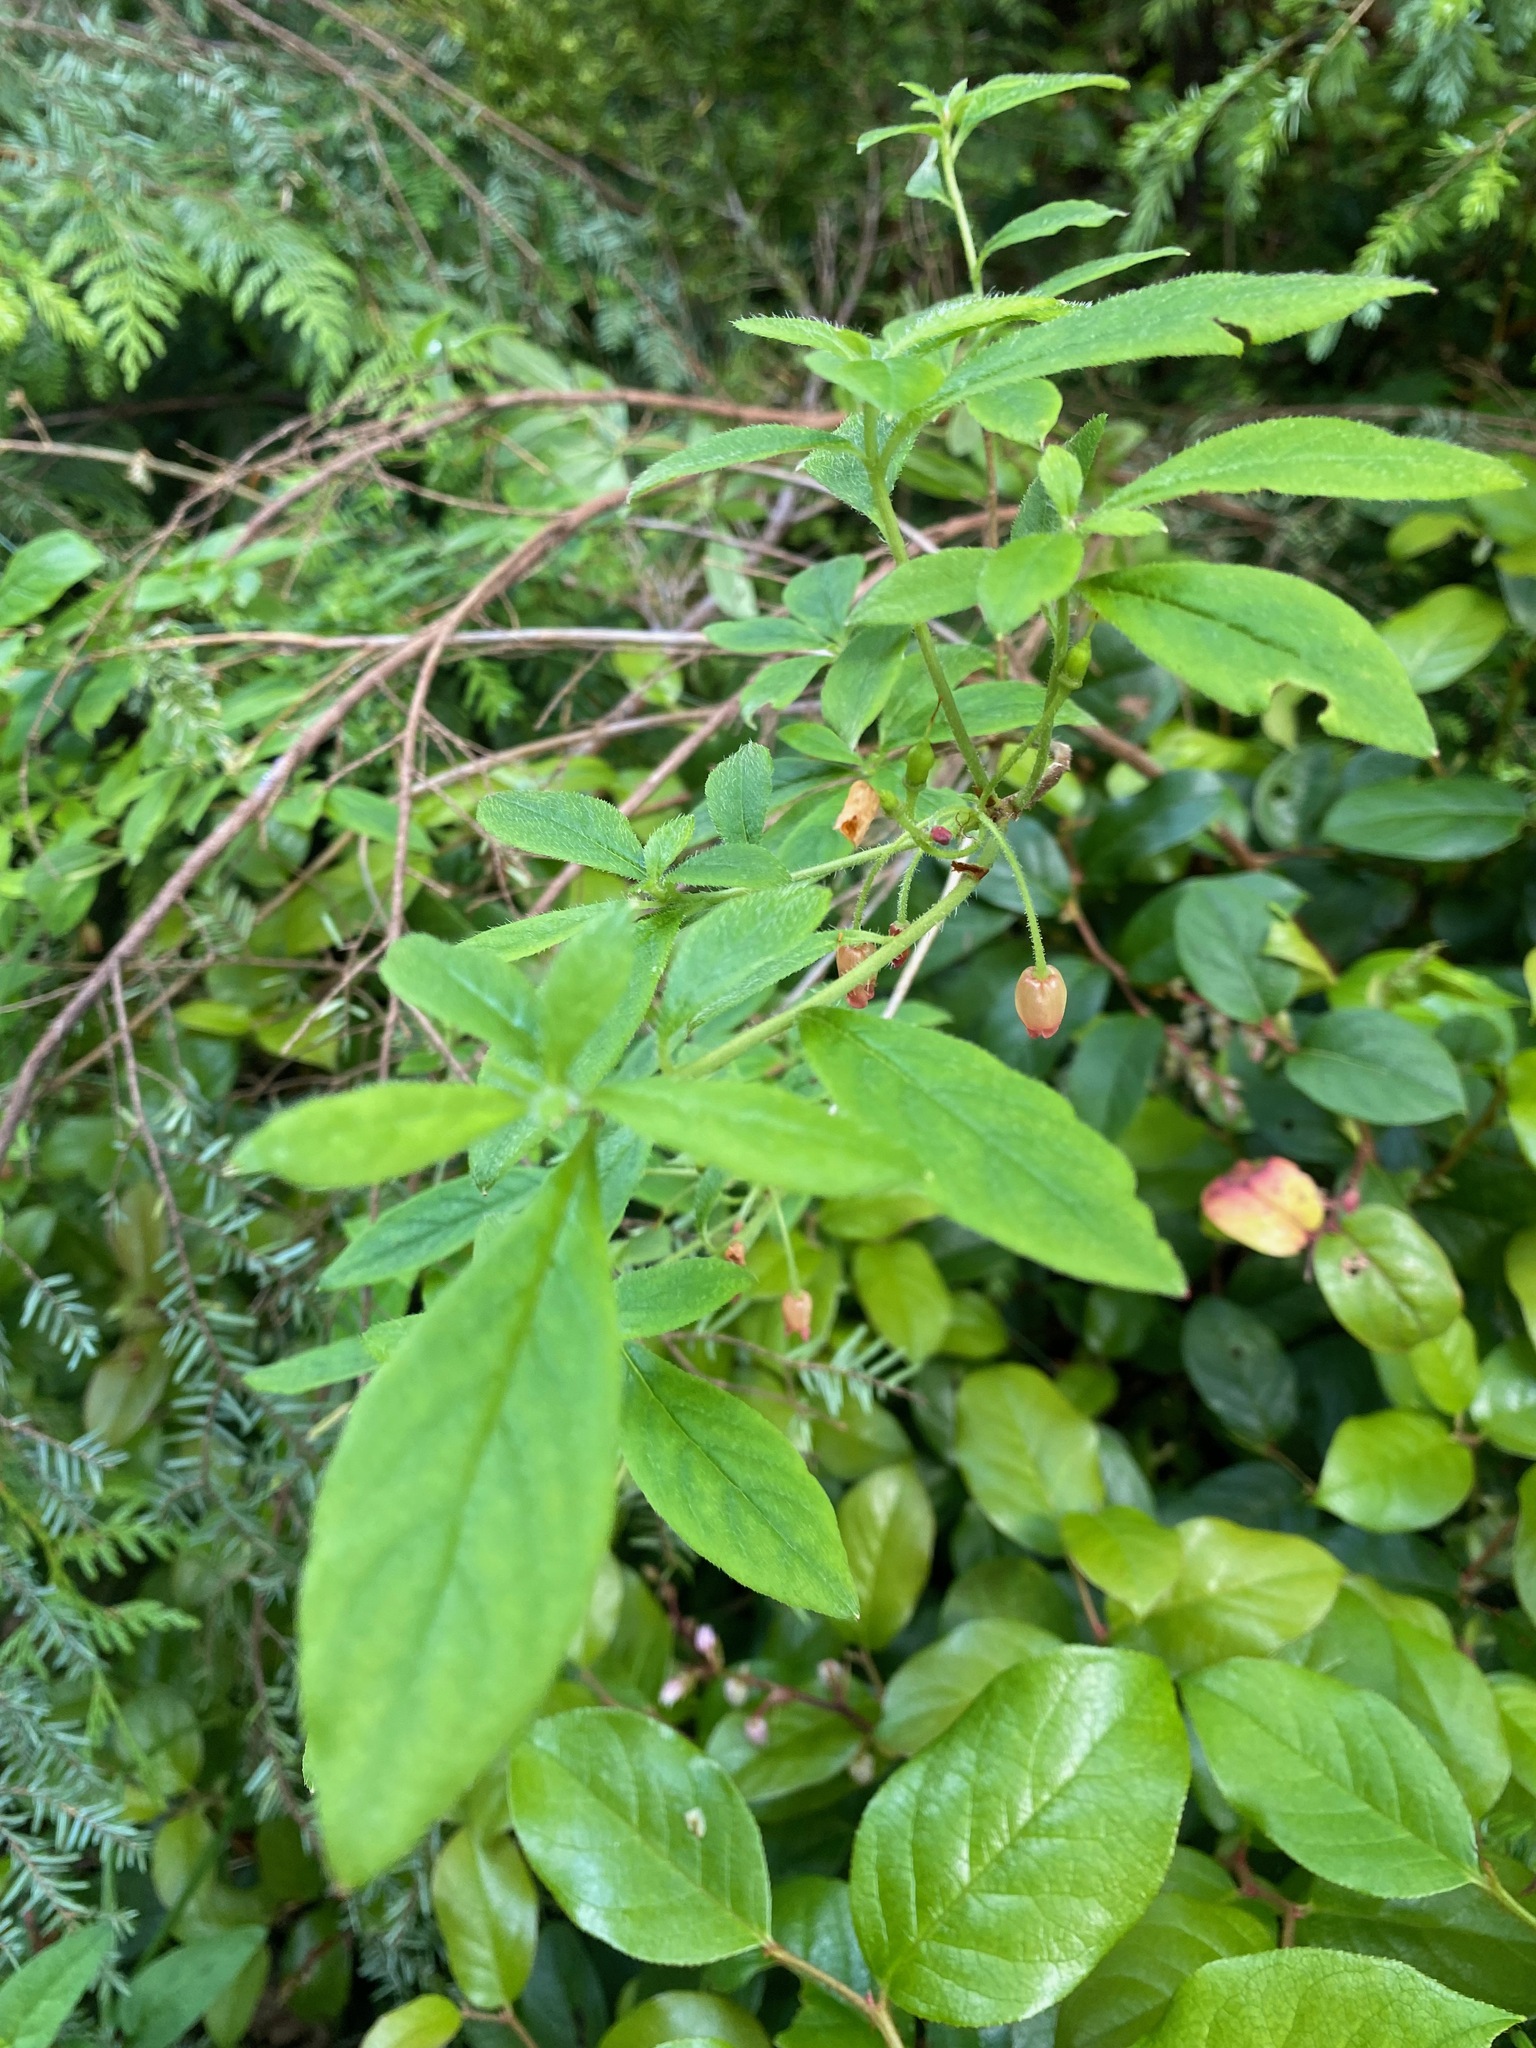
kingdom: Plantae
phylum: Tracheophyta
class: Magnoliopsida
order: Ericales
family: Ericaceae
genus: Rhododendron
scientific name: Rhododendron menziesii
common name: Pacific menziesia
